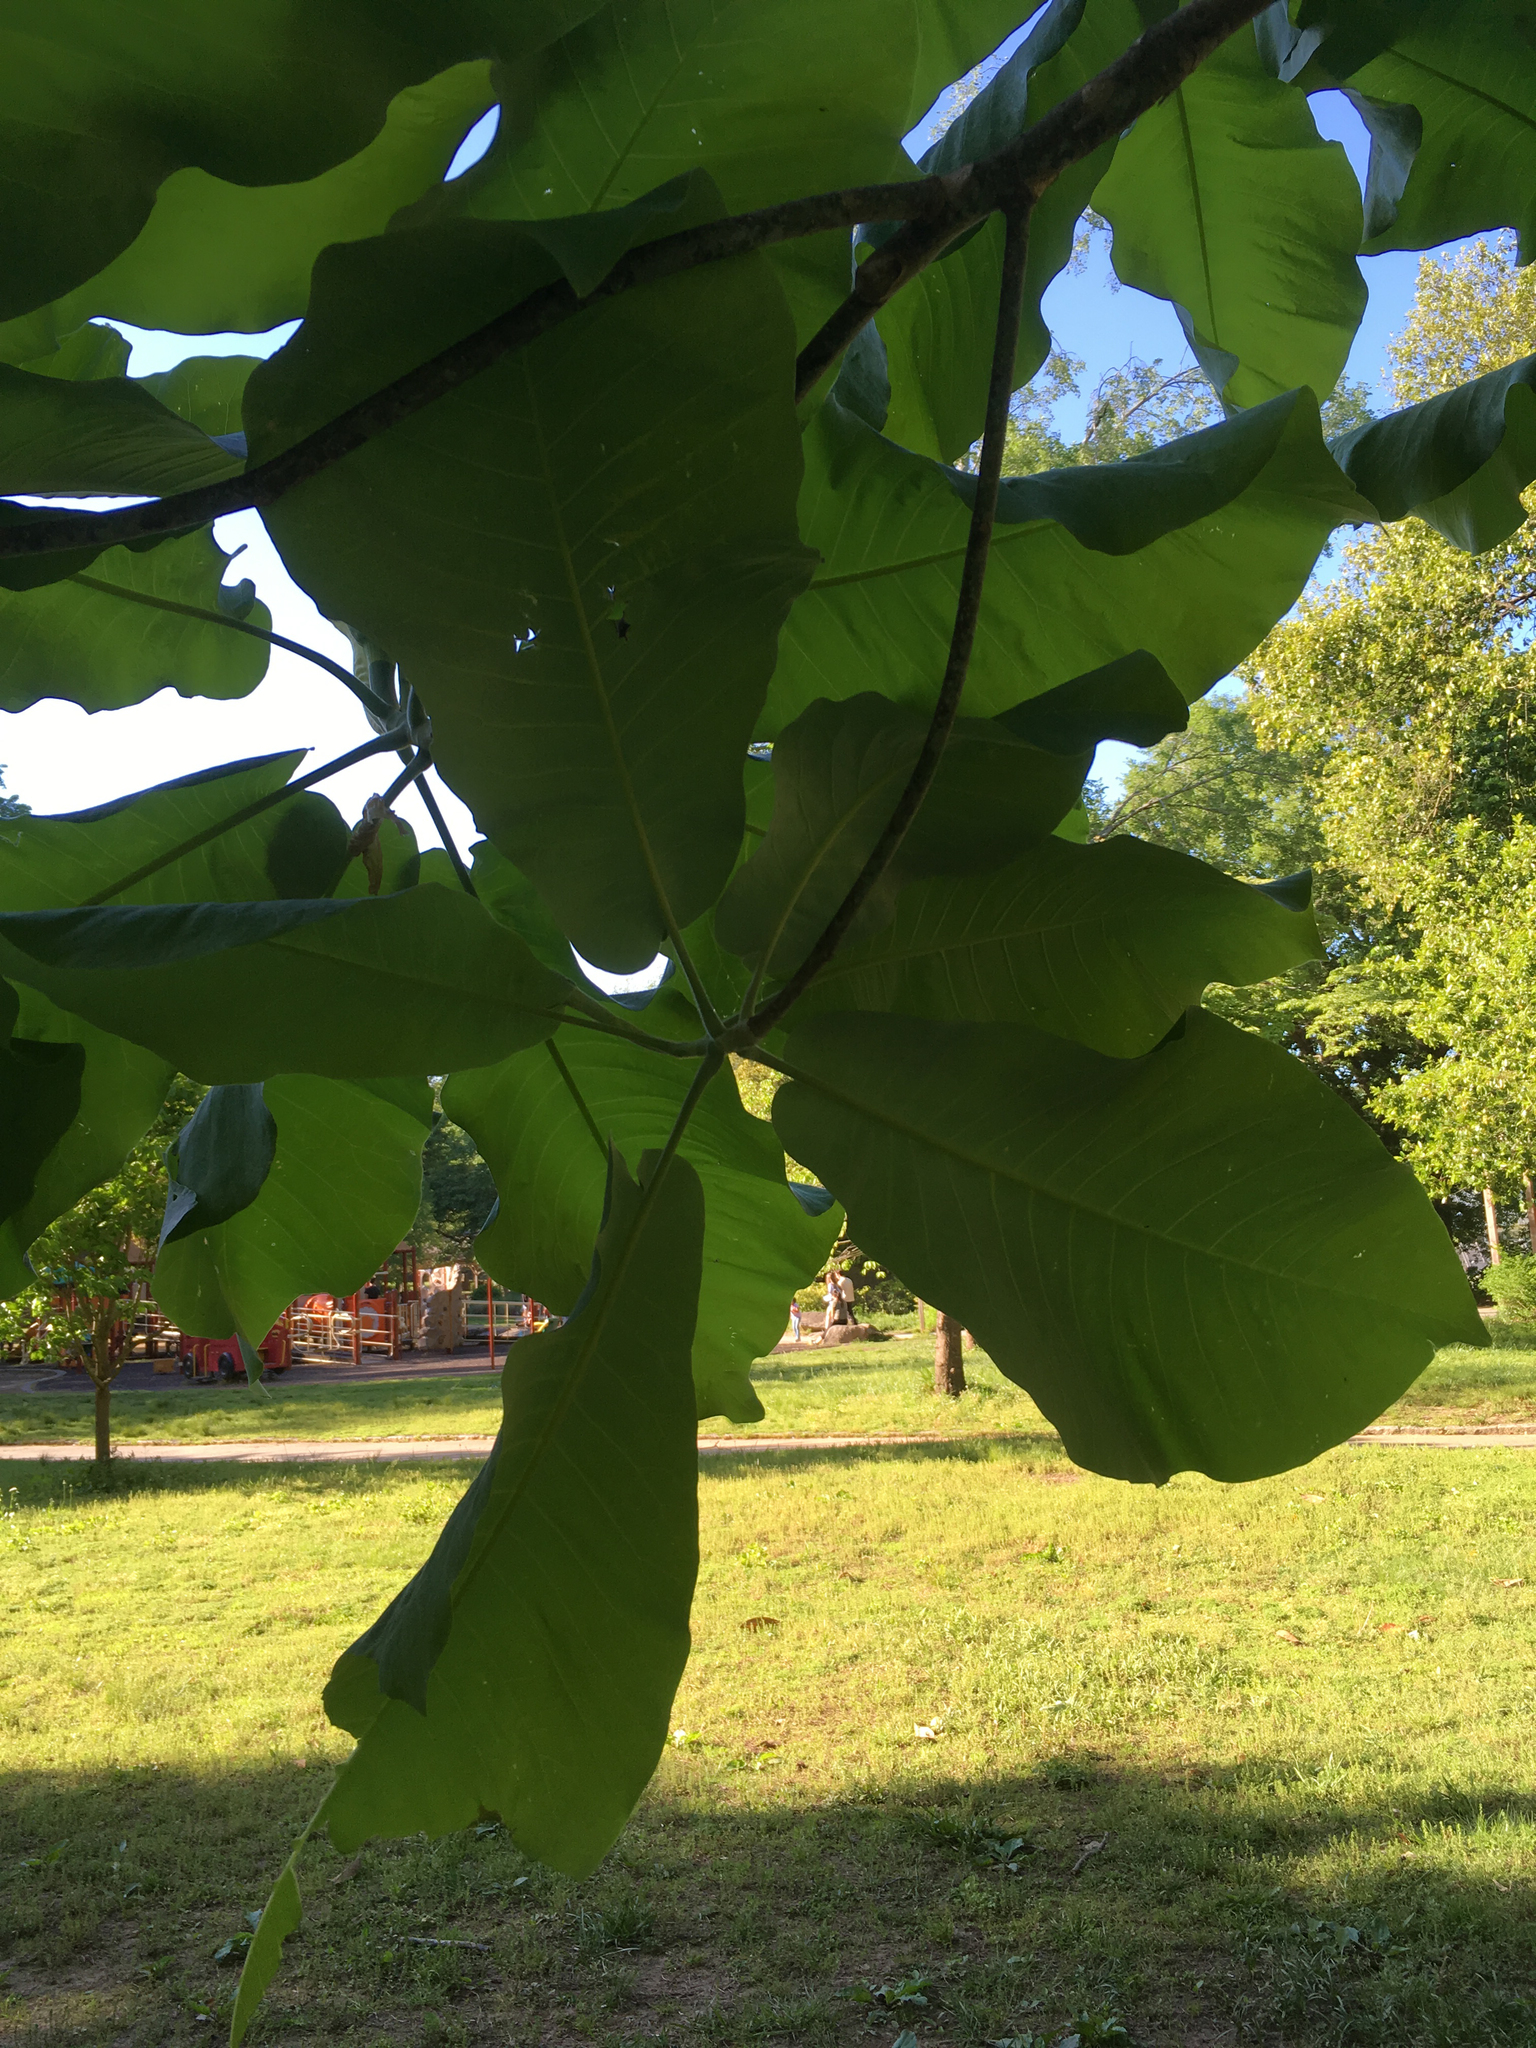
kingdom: Plantae
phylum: Tracheophyta
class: Magnoliopsida
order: Magnoliales
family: Magnoliaceae
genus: Magnolia
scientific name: Magnolia macrophylla
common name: Big-leaf magnolia
